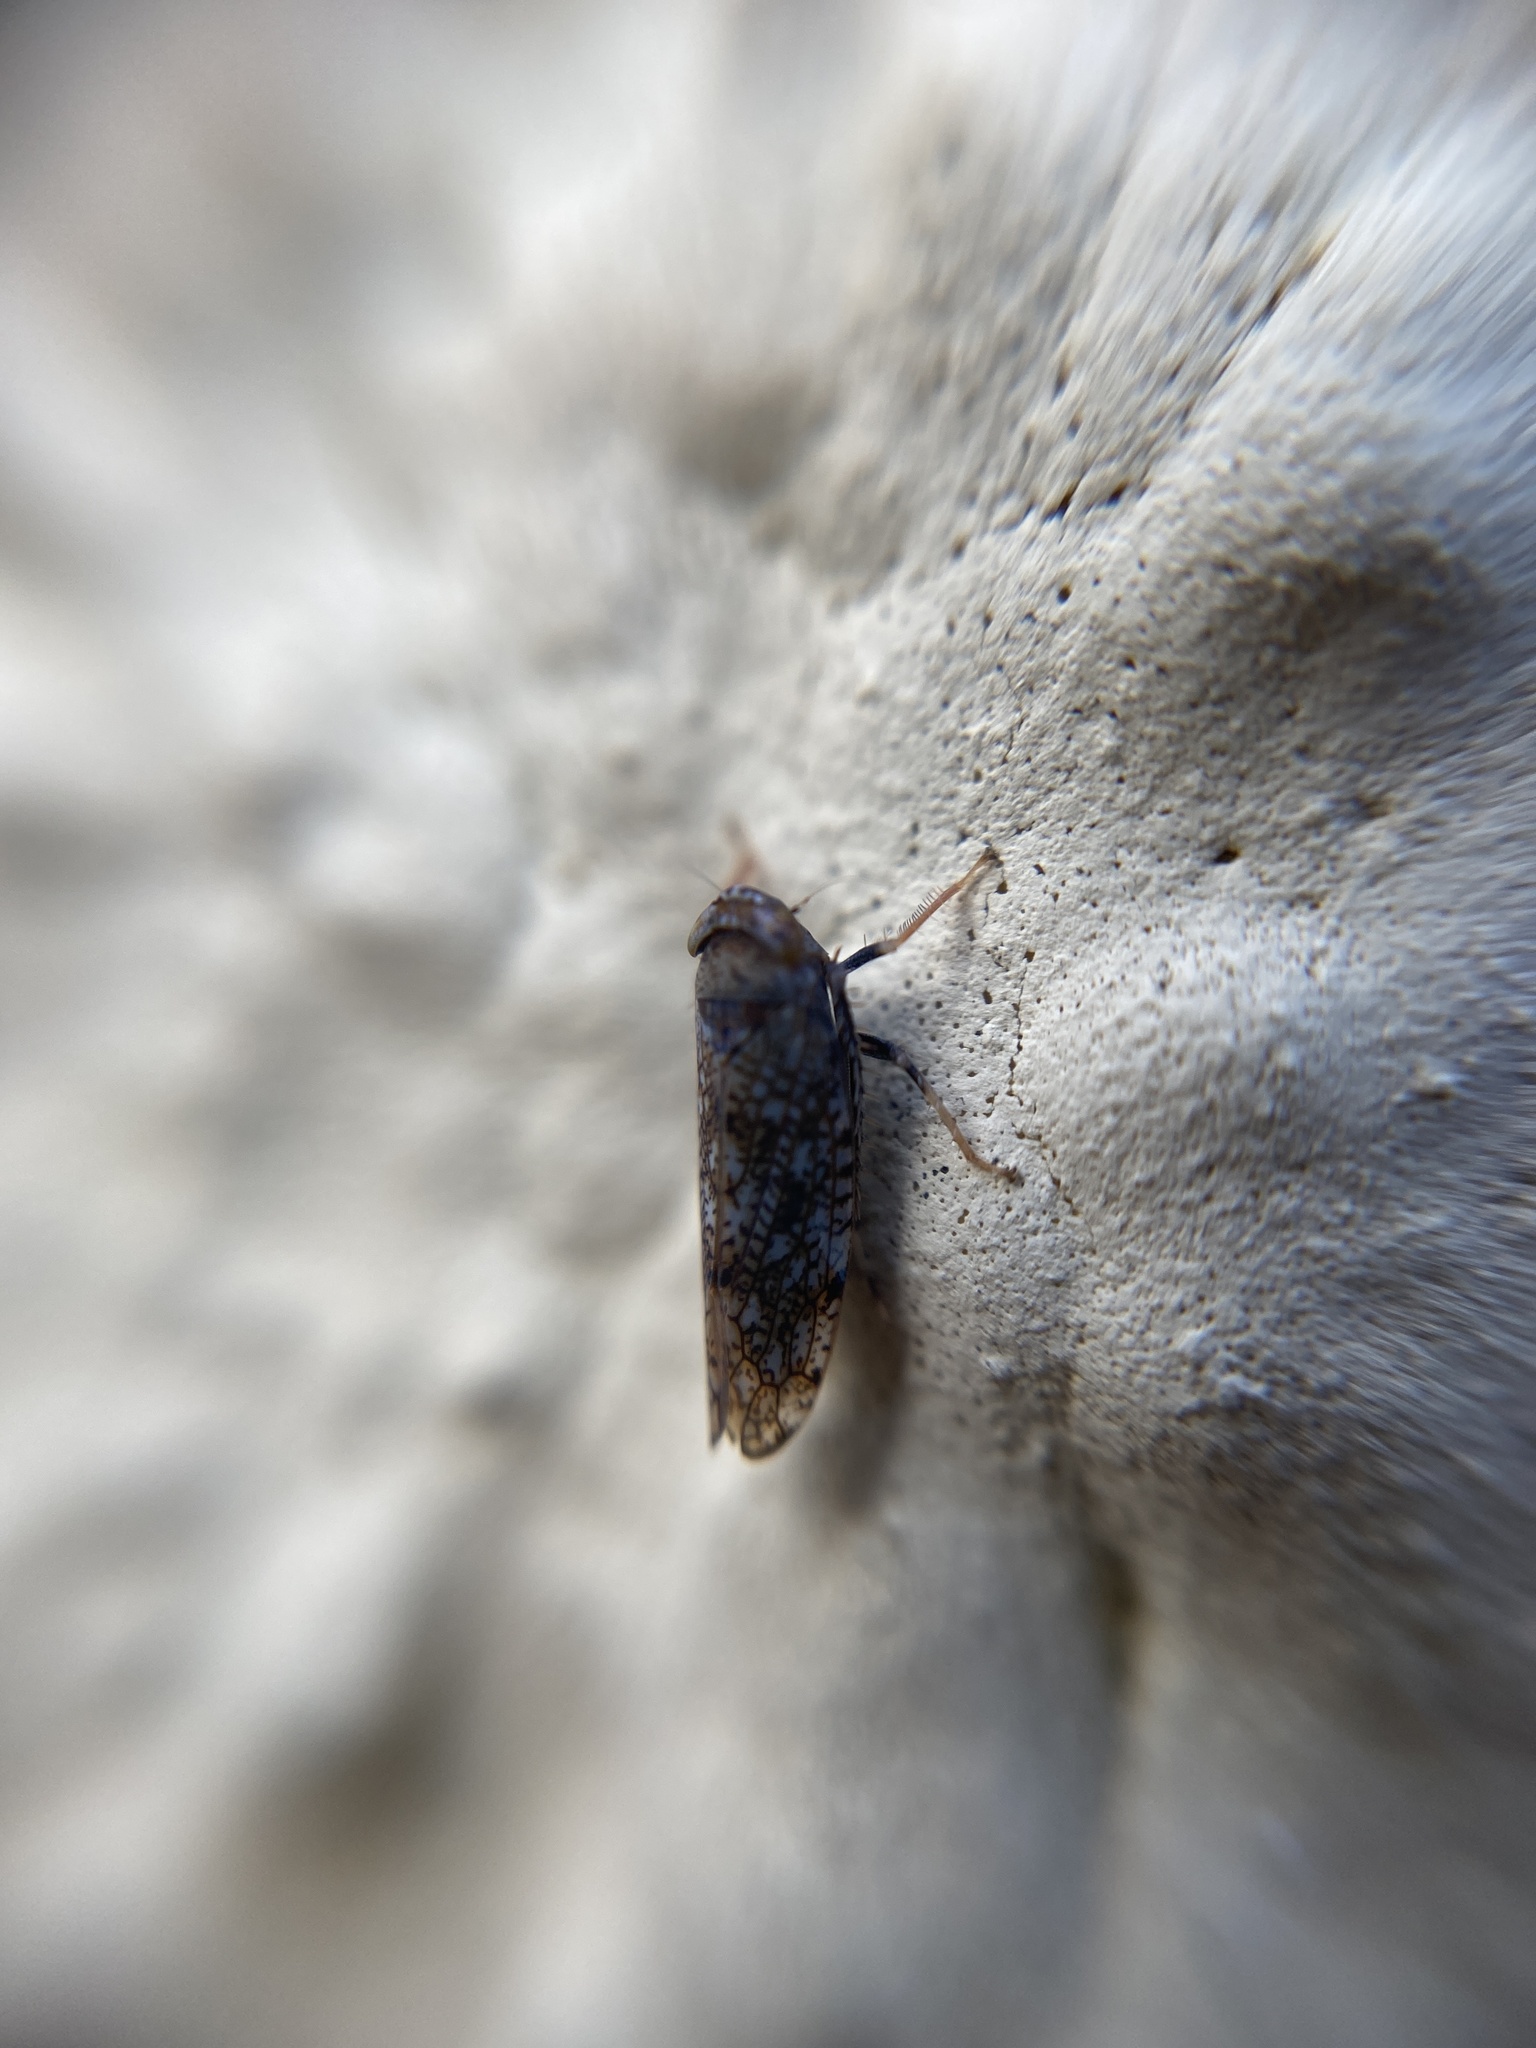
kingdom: Animalia
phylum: Arthropoda
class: Insecta
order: Hemiptera
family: Cicadellidae
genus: Orientus
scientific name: Orientus ishidae
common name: Japanese leafhopper
